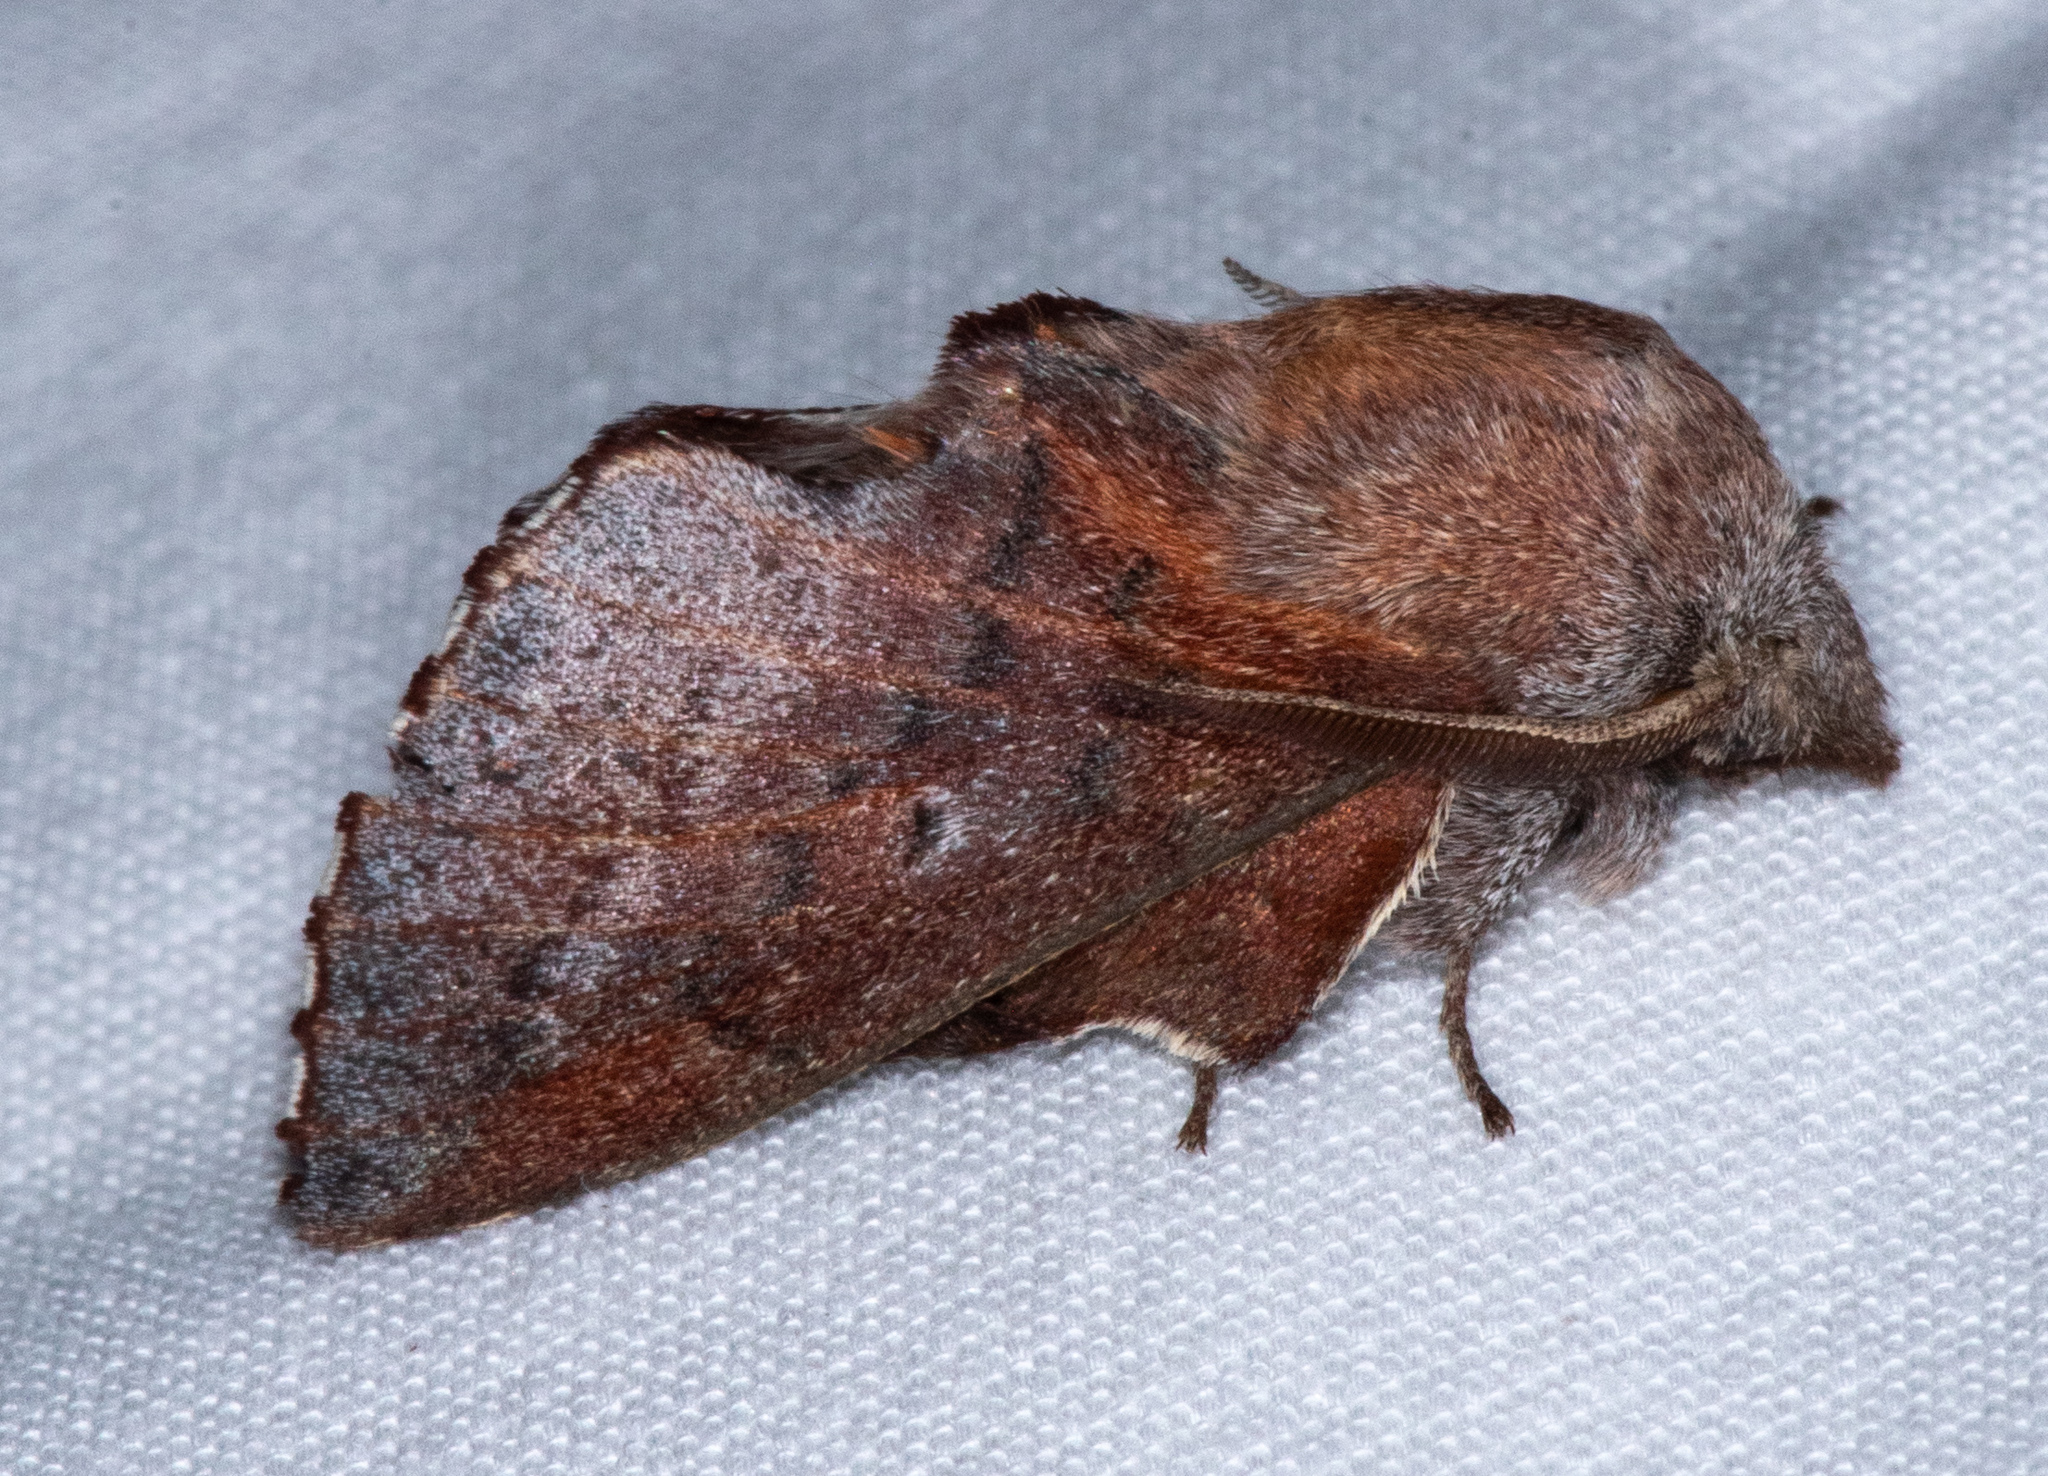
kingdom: Animalia
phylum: Arthropoda
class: Insecta
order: Lepidoptera
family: Lasiocampidae
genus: Phyllodesma
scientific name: Phyllodesma americana
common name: American lappet moth
